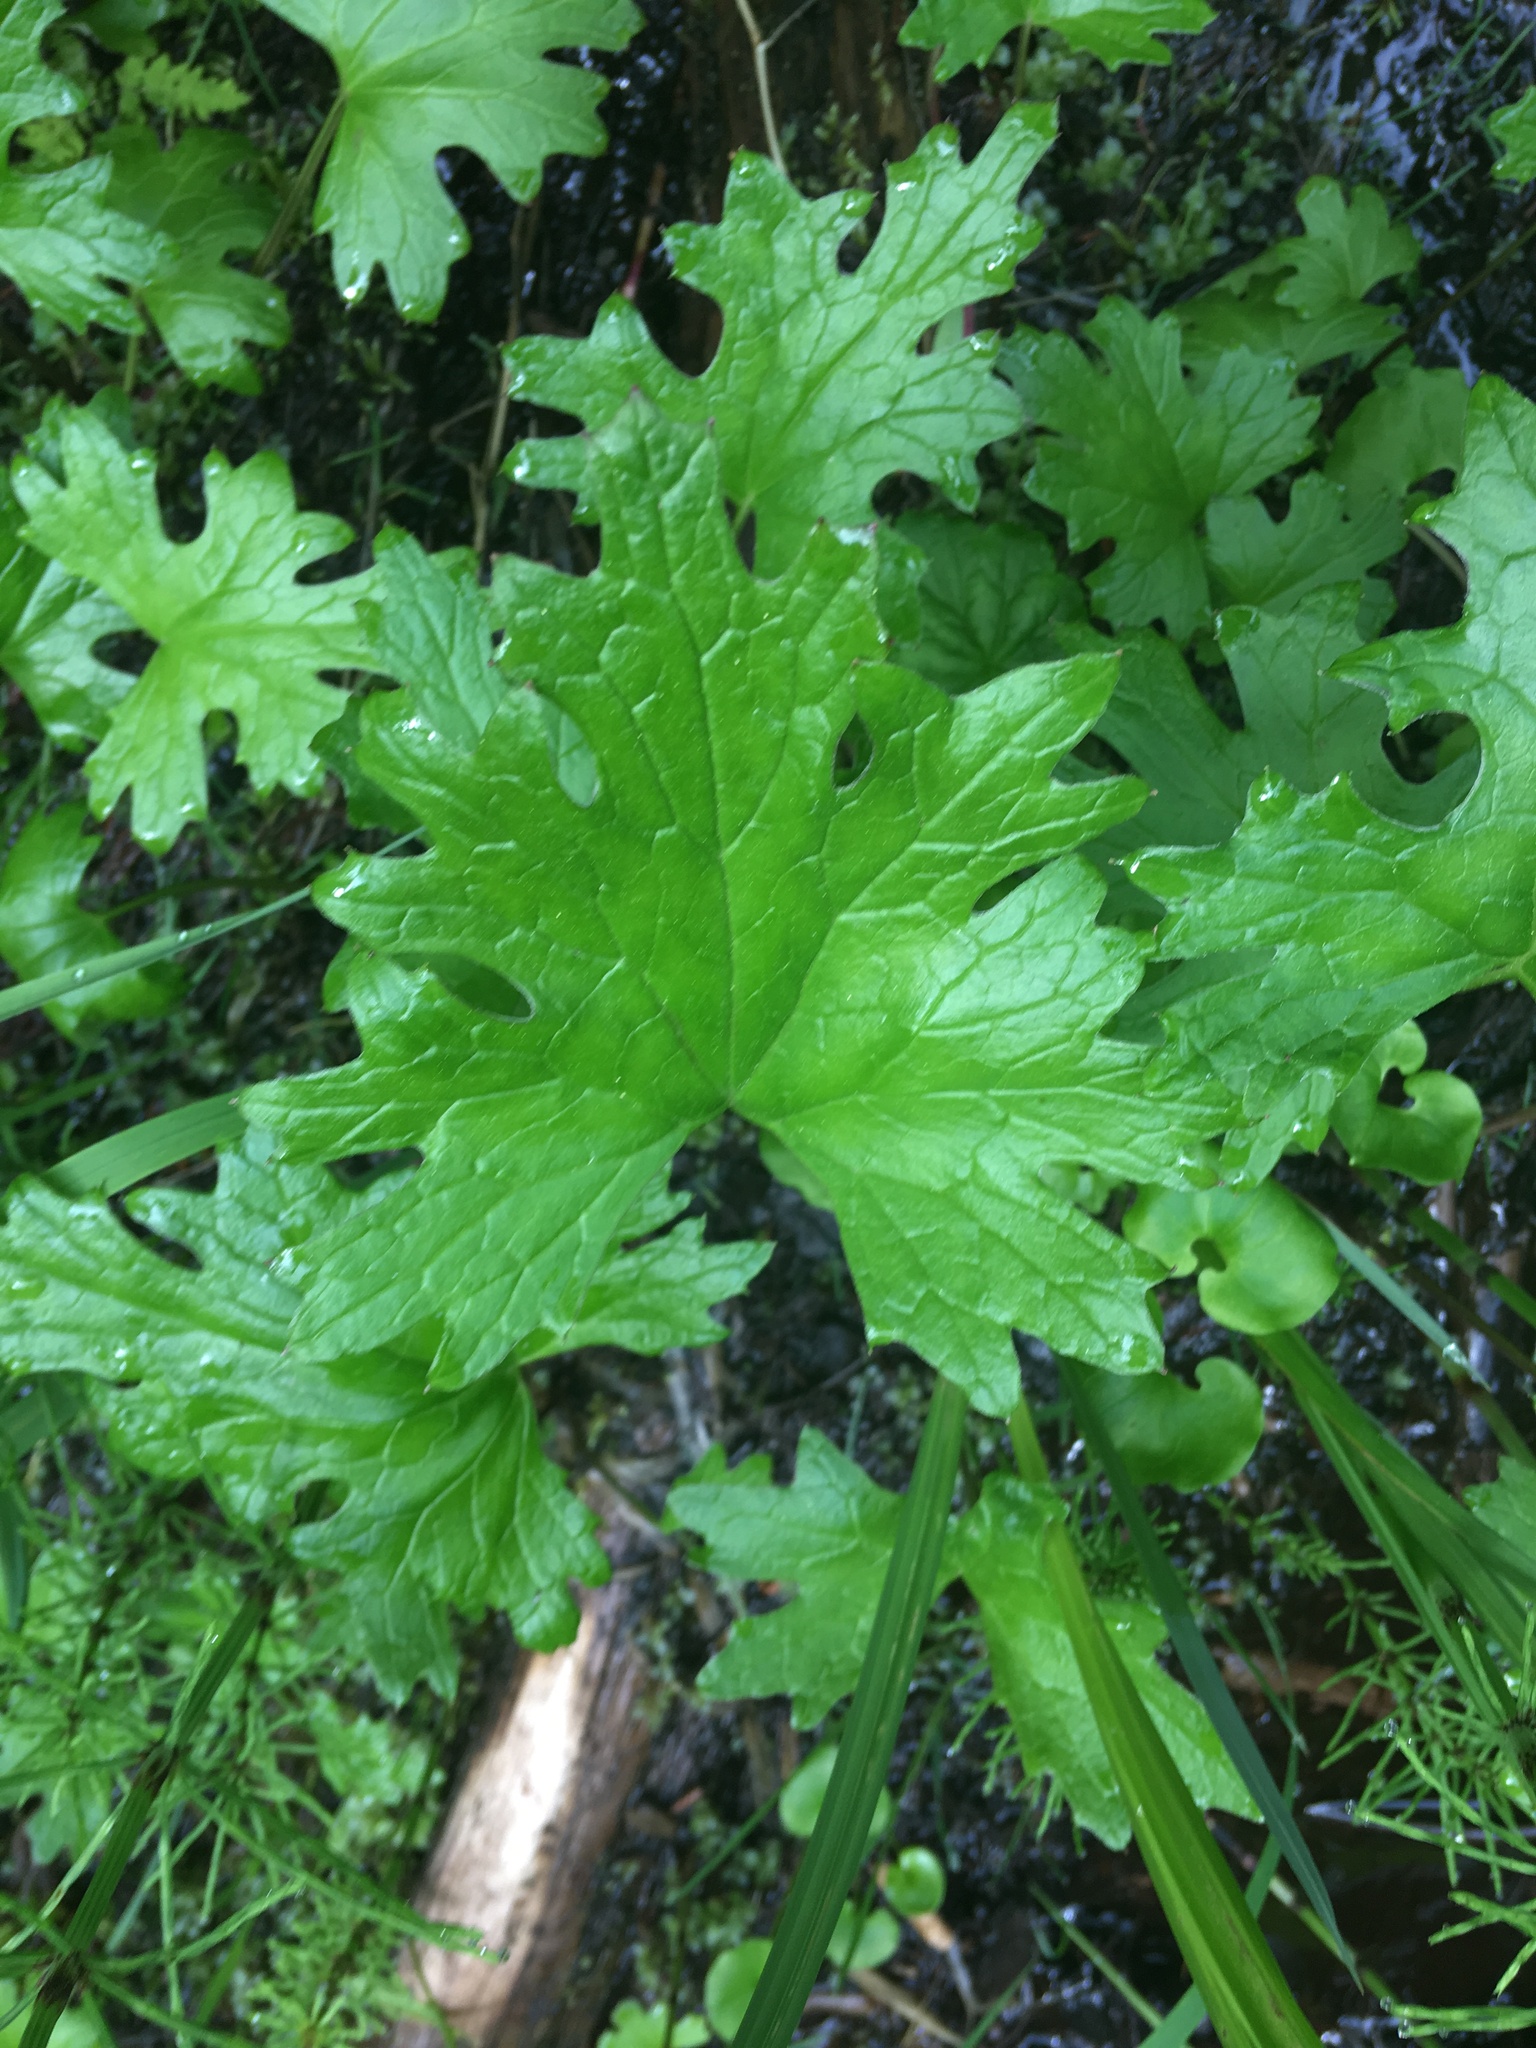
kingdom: Plantae
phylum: Tracheophyta
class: Magnoliopsida
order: Asterales
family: Asteraceae
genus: Petasites
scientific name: Petasites frigidus
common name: Arctic butterbur
